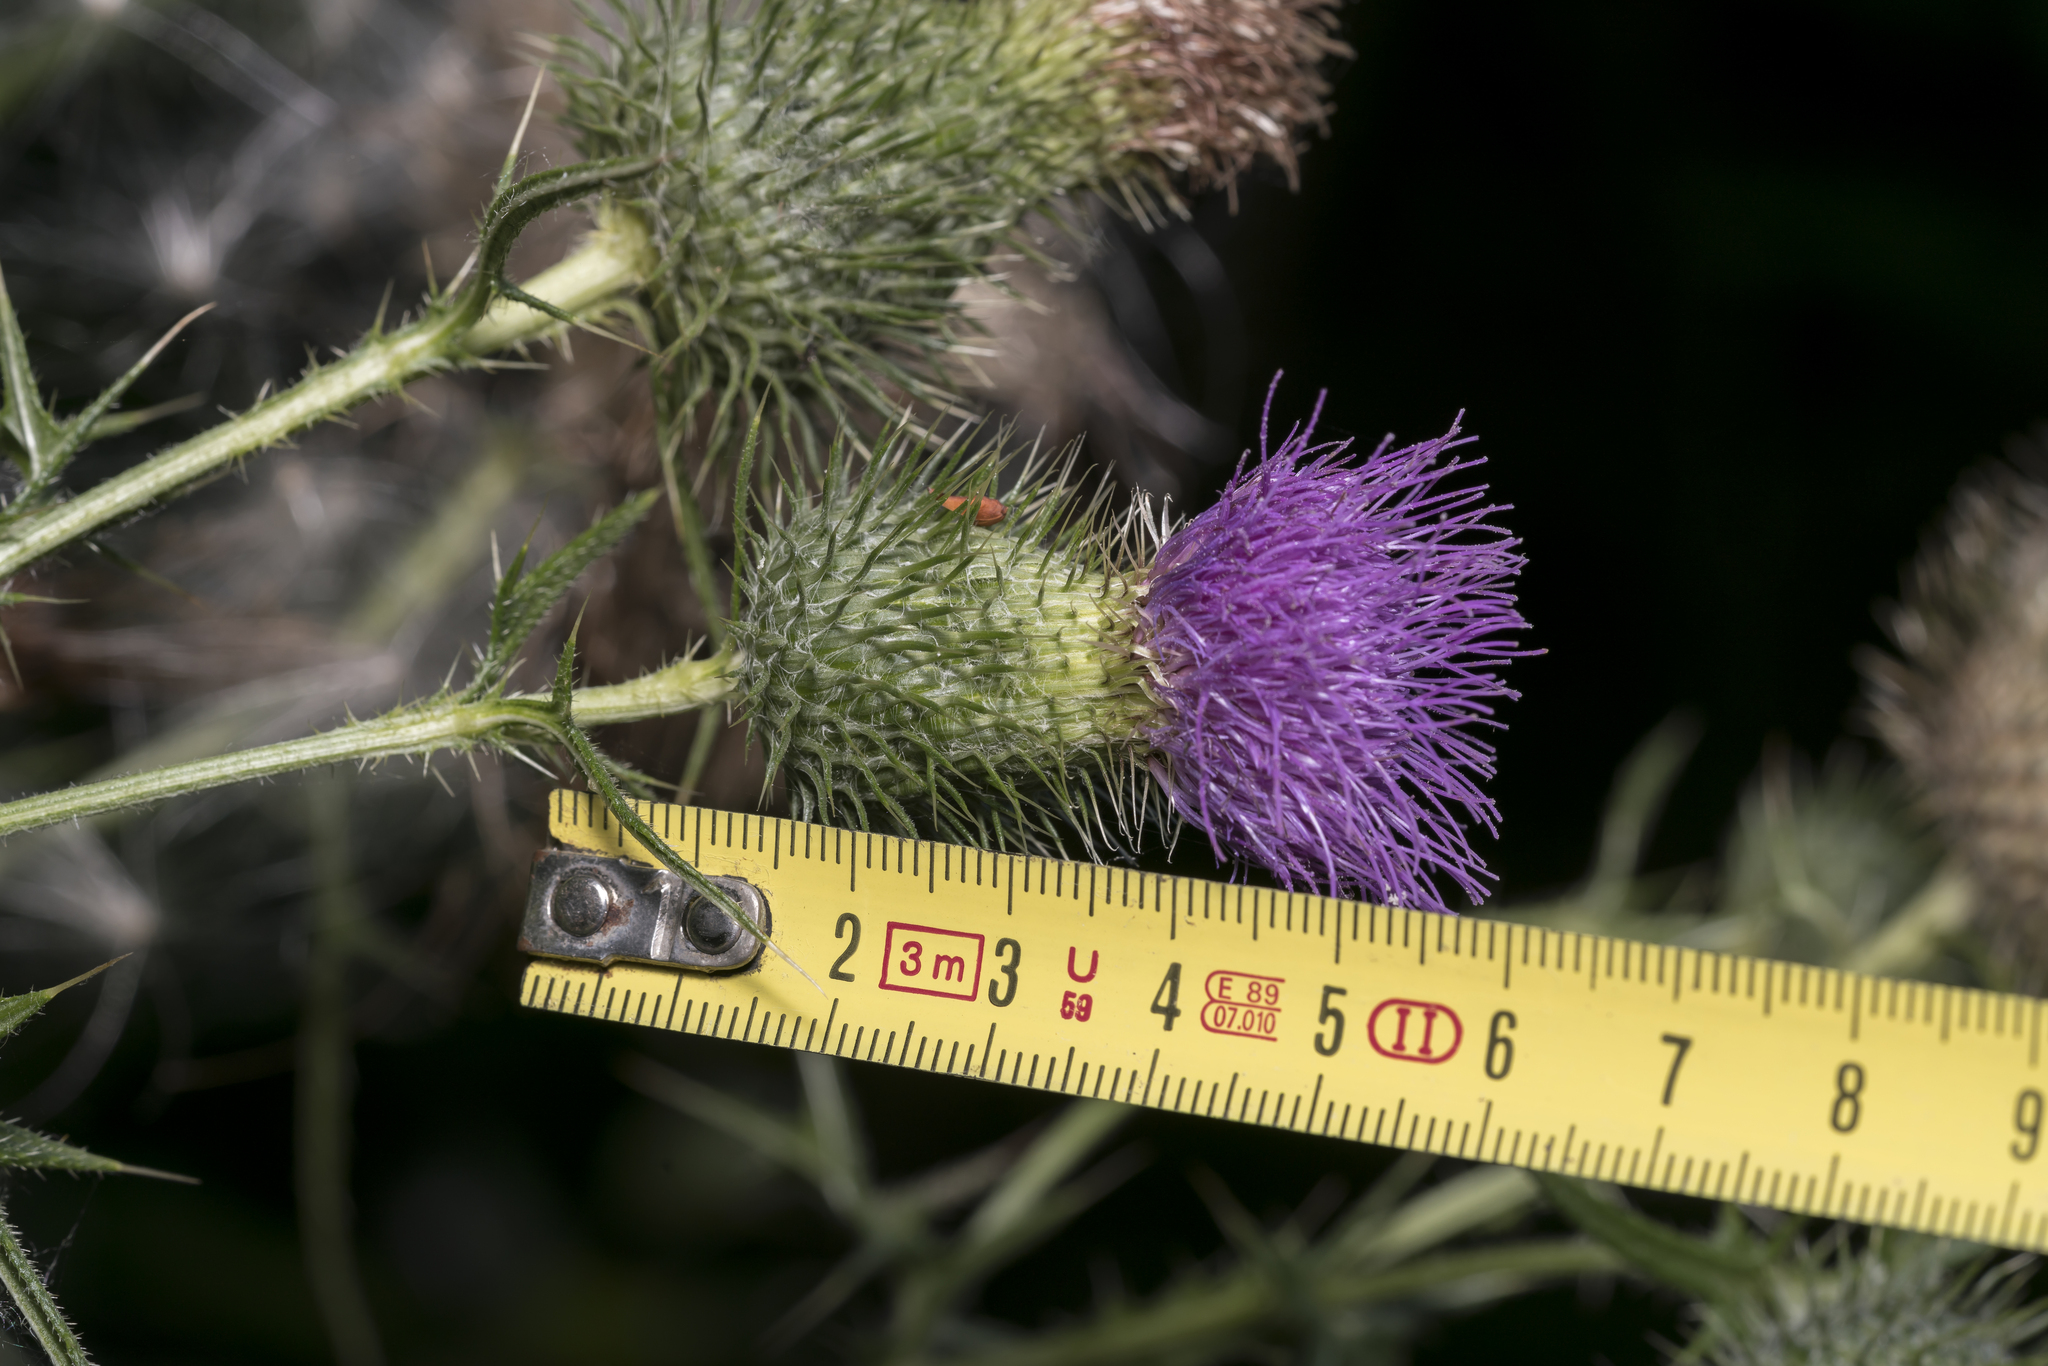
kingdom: Plantae
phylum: Tracheophyta
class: Magnoliopsida
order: Asterales
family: Asteraceae
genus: Cirsium
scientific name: Cirsium vulgare
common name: Bull thistle
